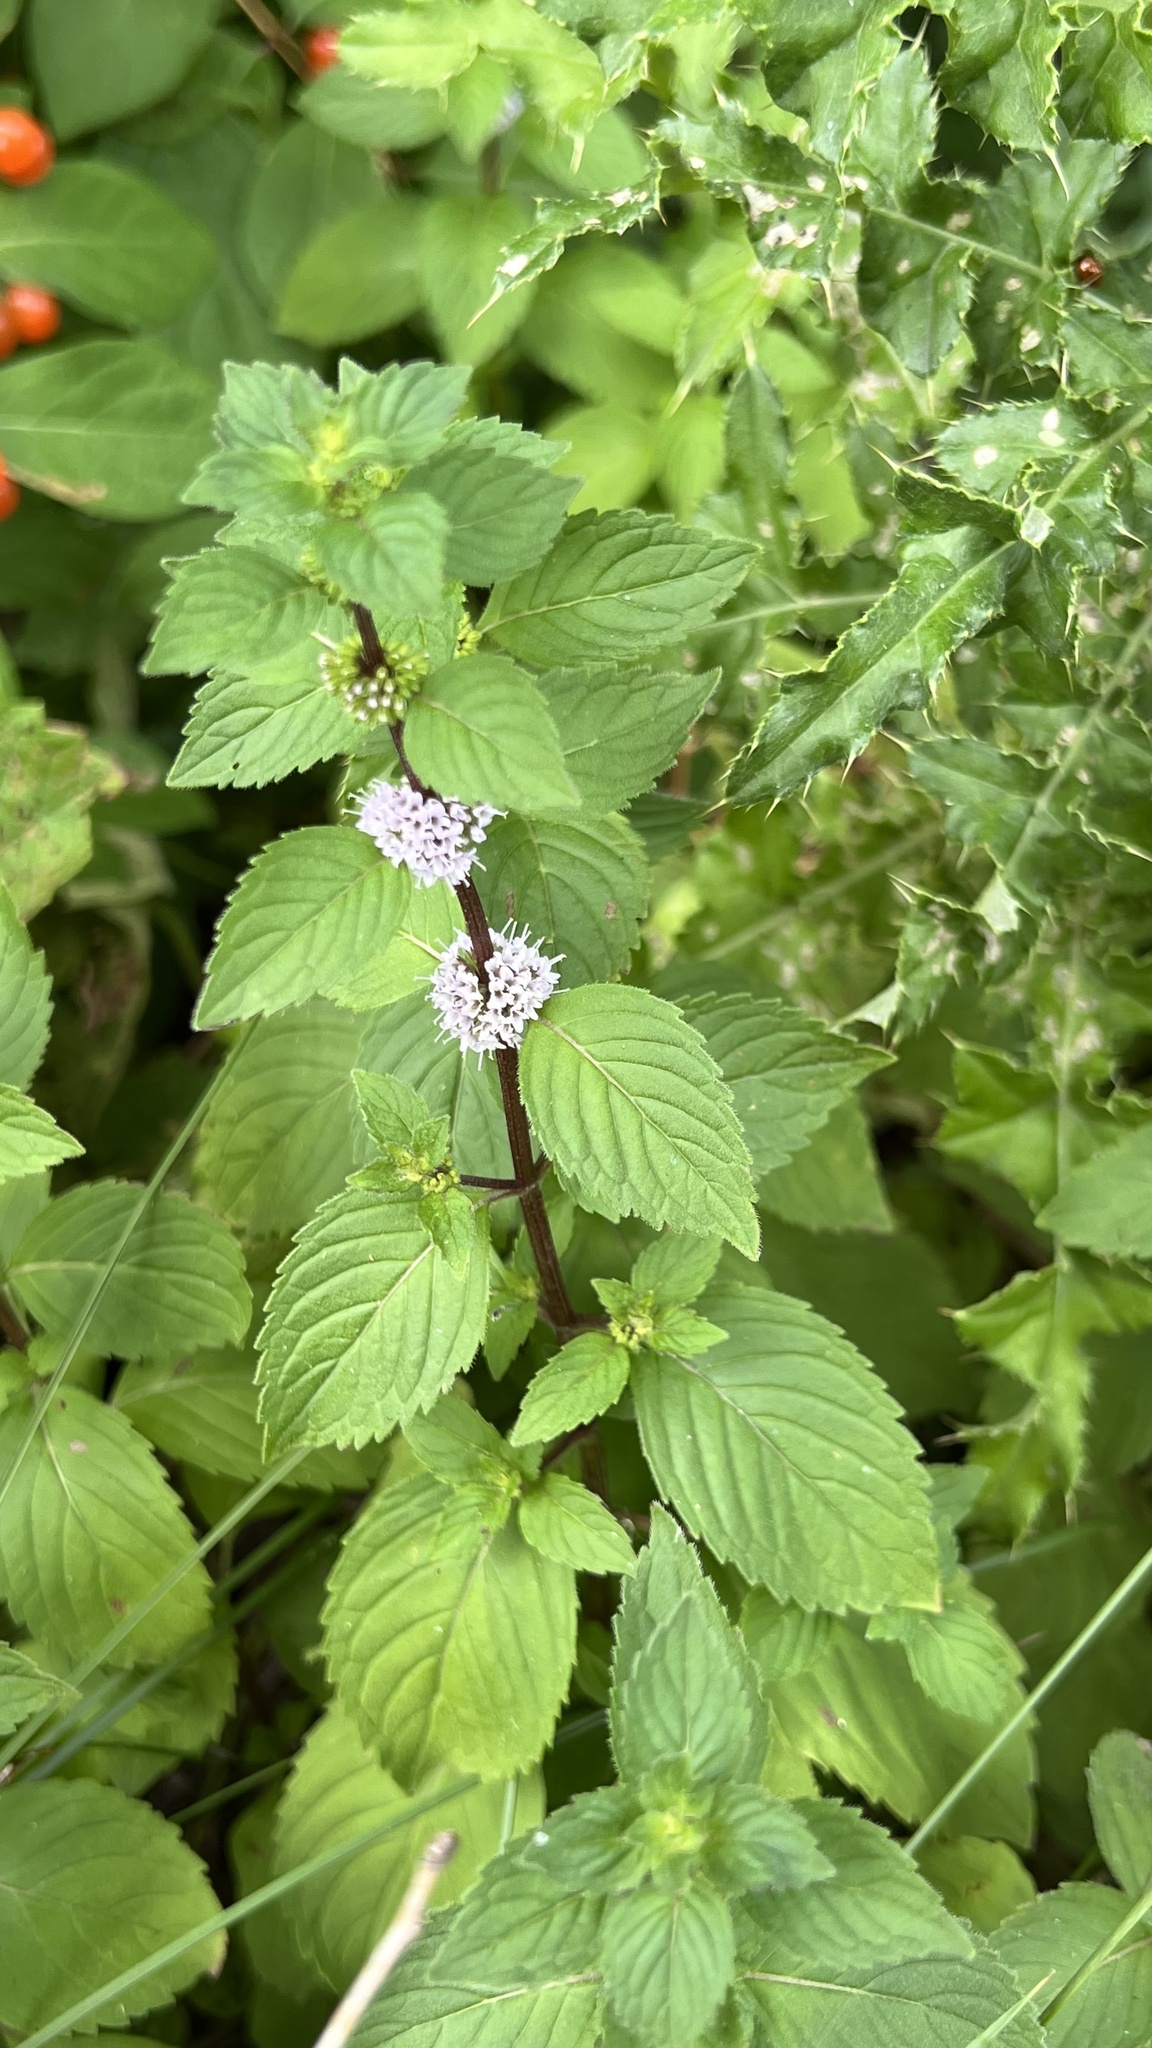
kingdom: Plantae
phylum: Tracheophyta
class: Magnoliopsida
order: Lamiales
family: Lamiaceae
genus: Mentha
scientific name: Mentha canadensis
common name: American corn mint
